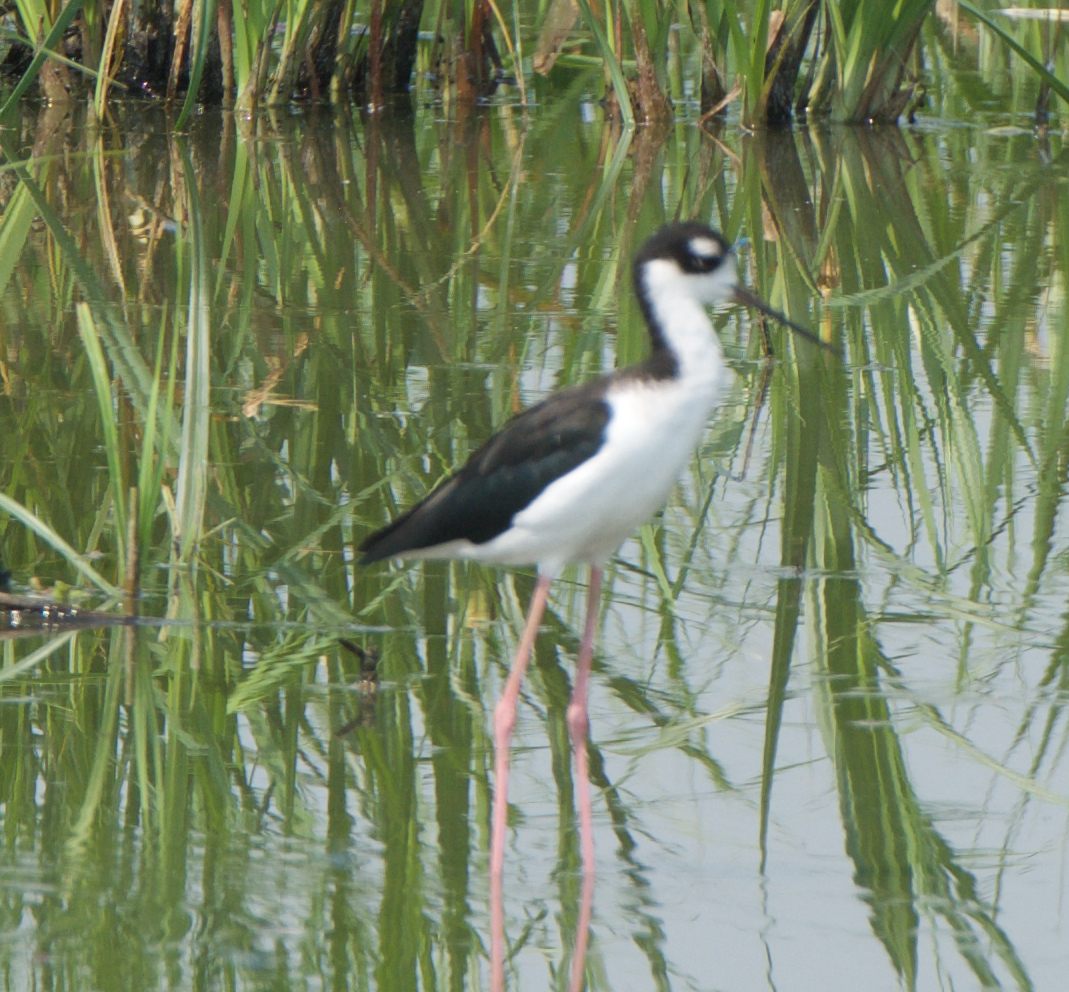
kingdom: Animalia
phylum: Chordata
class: Aves
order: Charadriiformes
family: Recurvirostridae
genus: Himantopus
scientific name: Himantopus mexicanus
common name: Black-necked stilt
